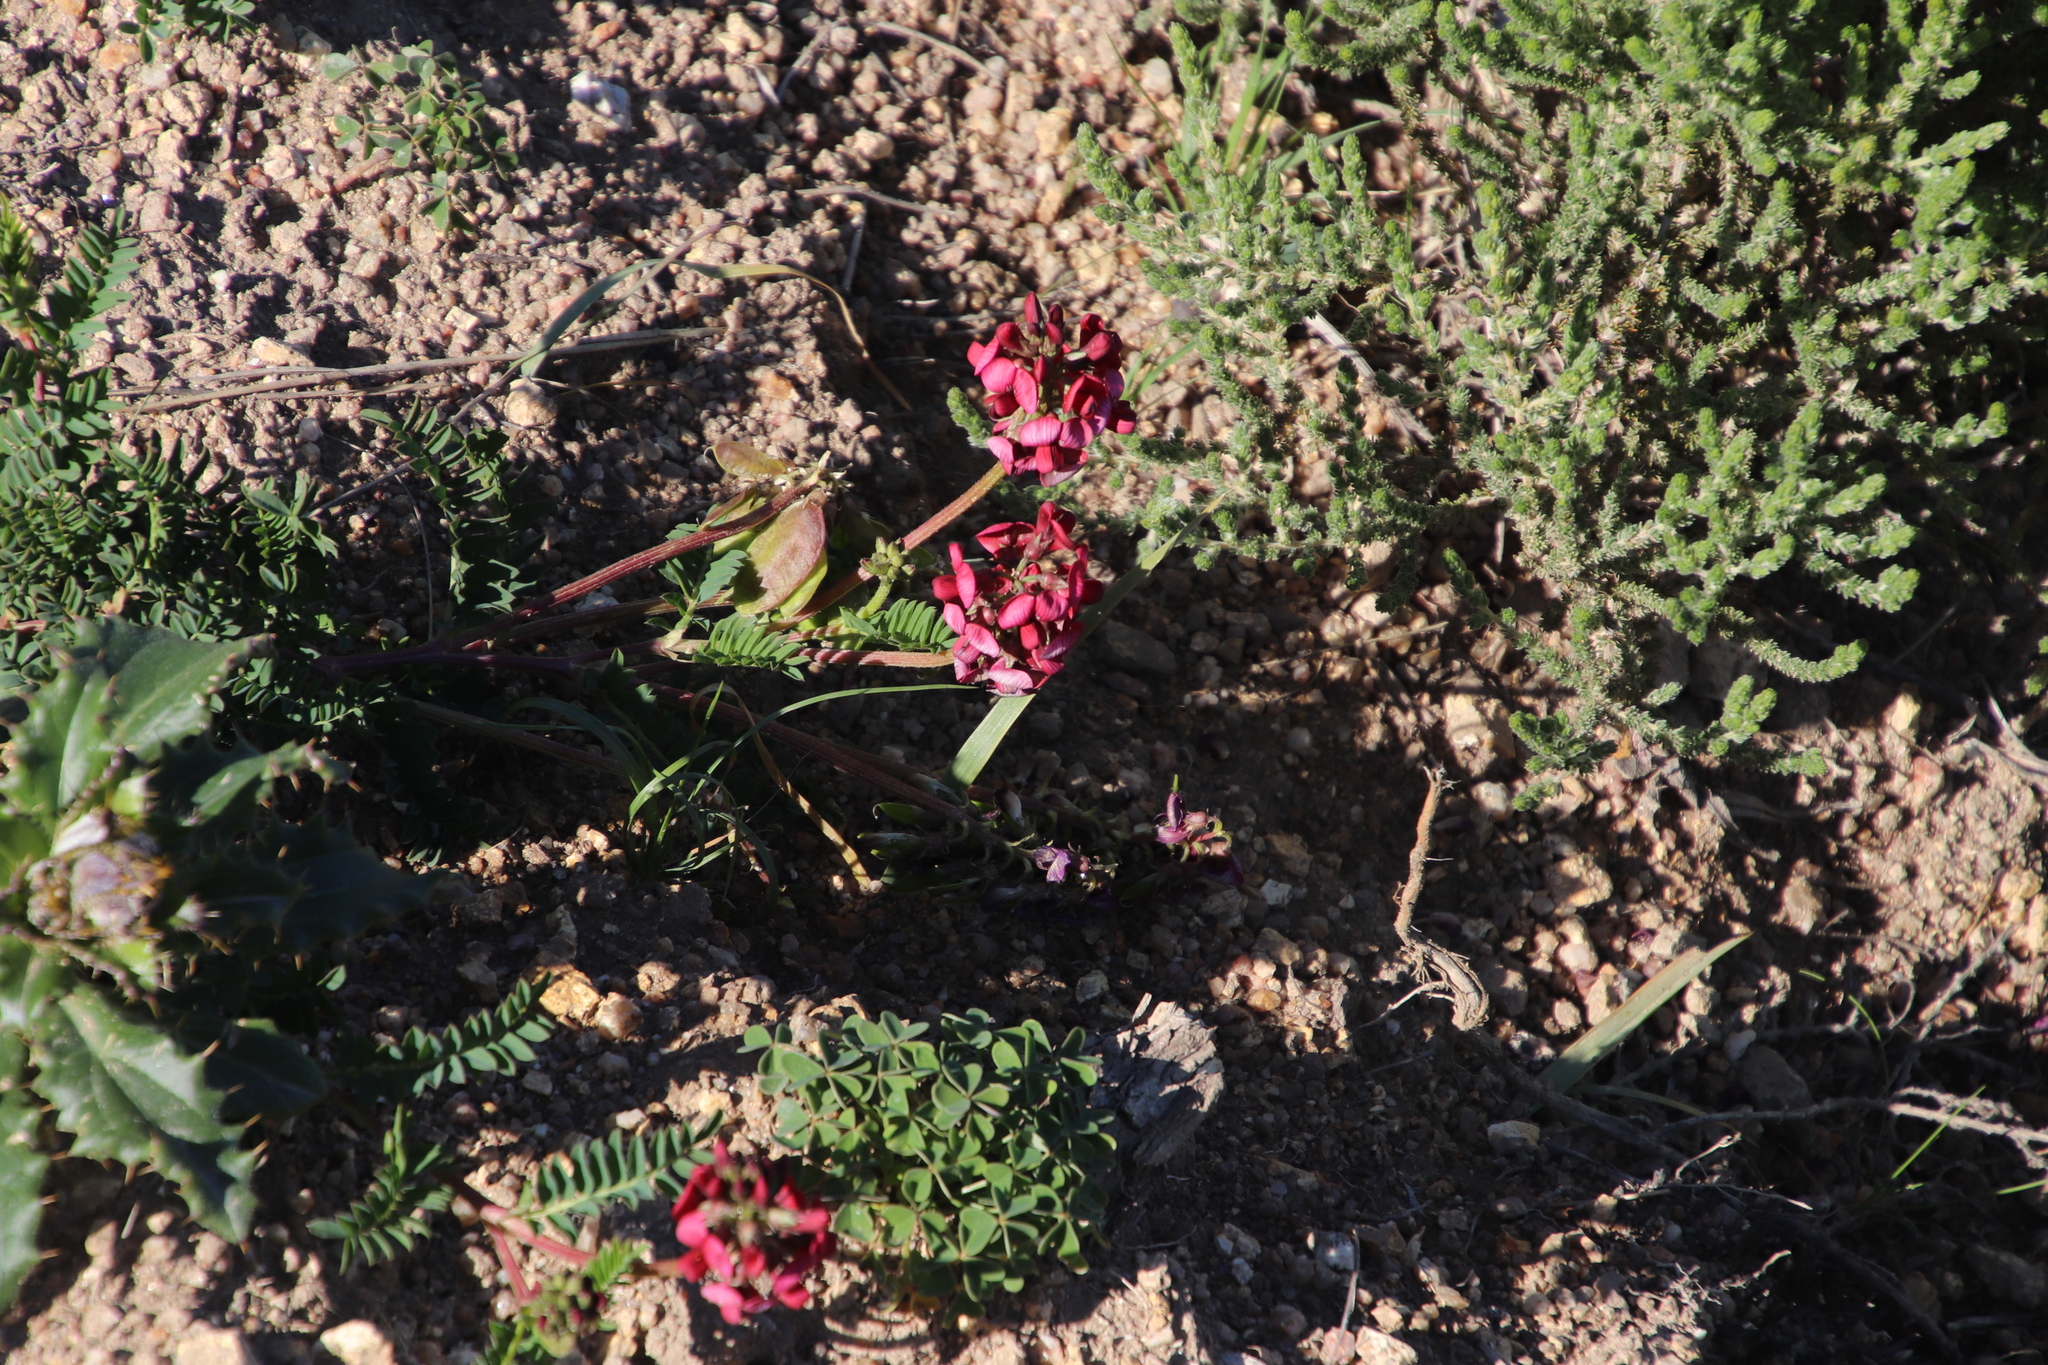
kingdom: Plantae
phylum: Tracheophyta
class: Magnoliopsida
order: Fabales
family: Fabaceae
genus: Lessertia
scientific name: Lessertia capensis
